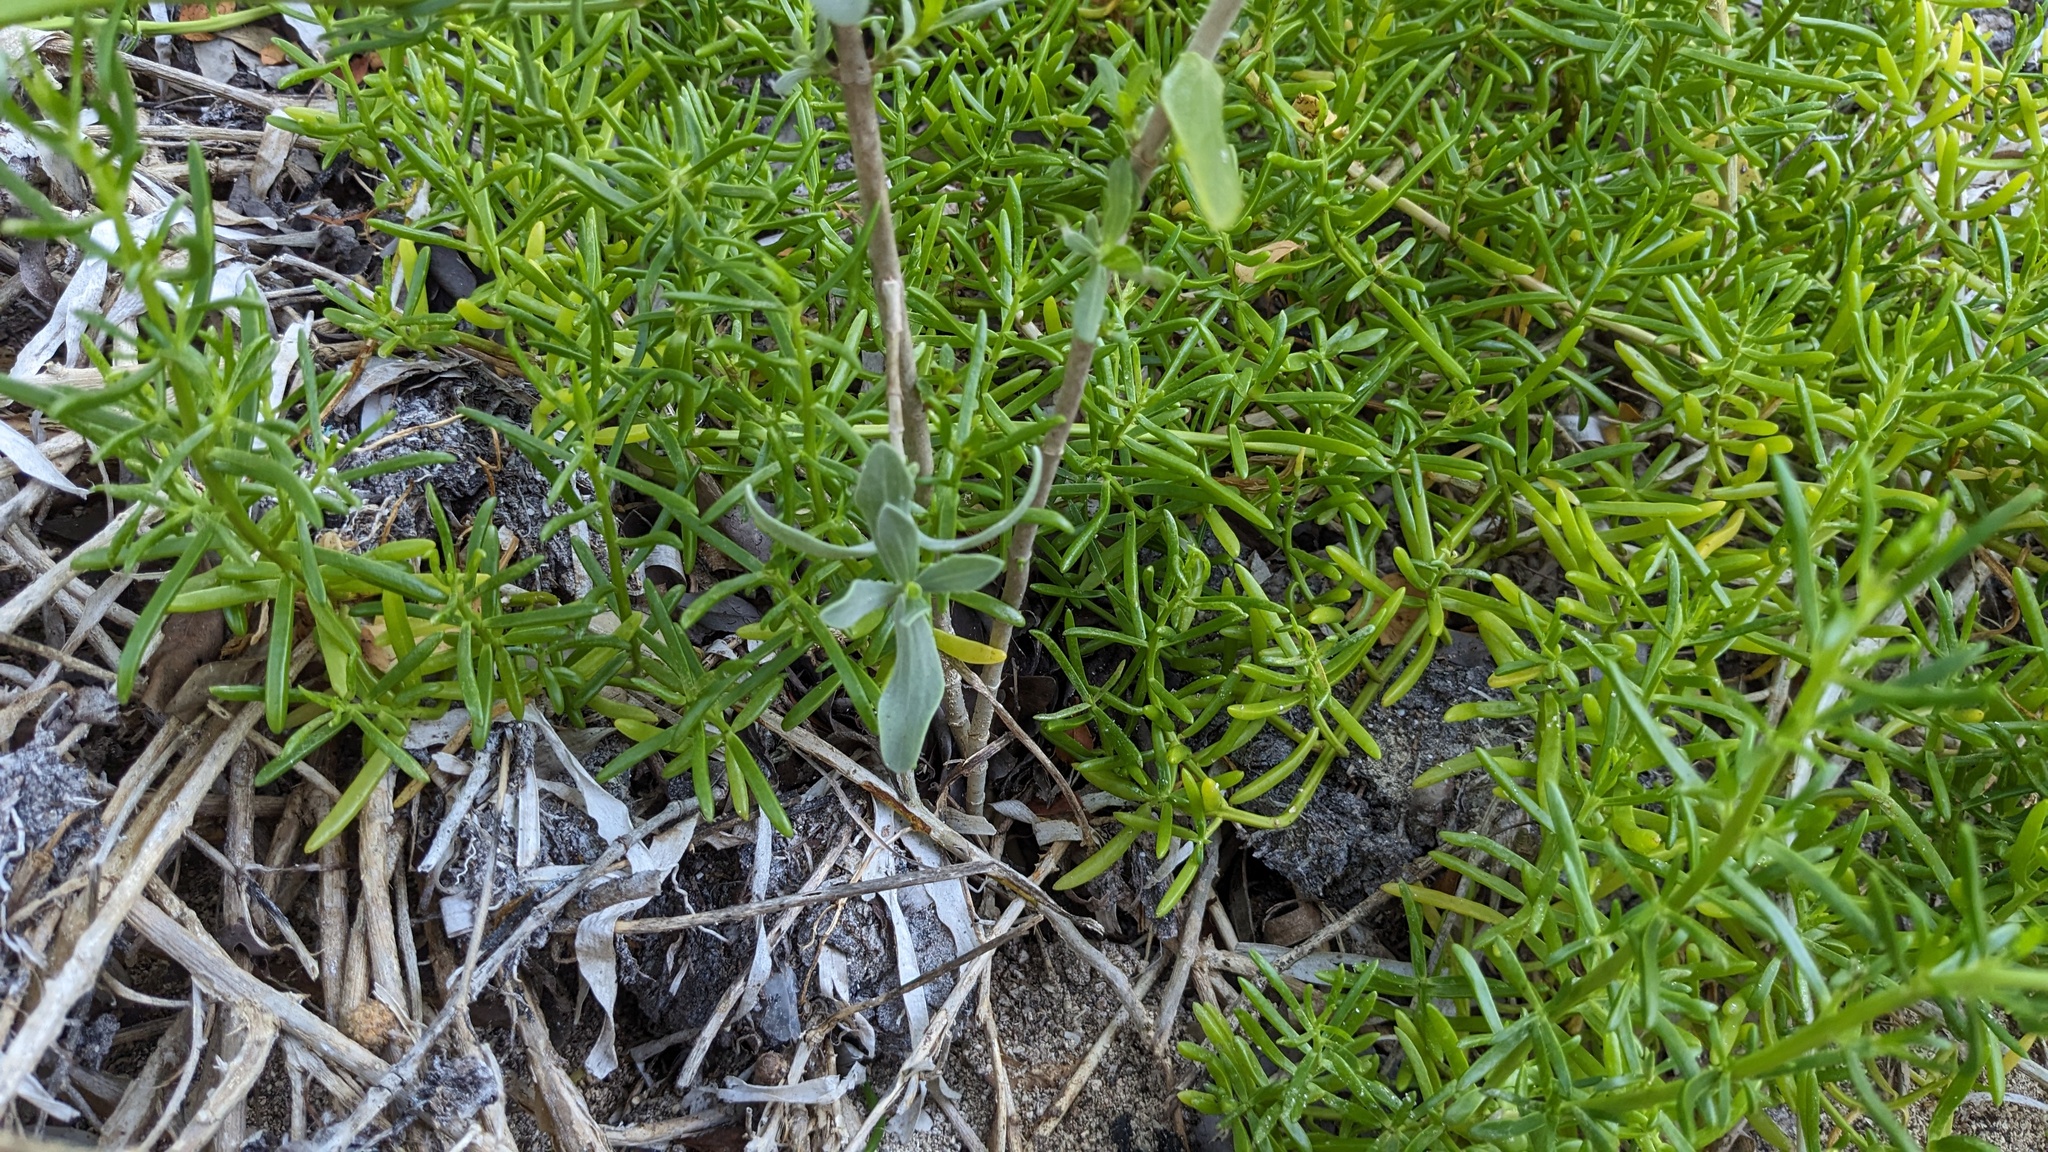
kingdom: Plantae
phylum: Tracheophyta
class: Magnoliopsida
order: Asterales
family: Asteraceae
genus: Borrichia
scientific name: Borrichia frutescens
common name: Sea oxeye
